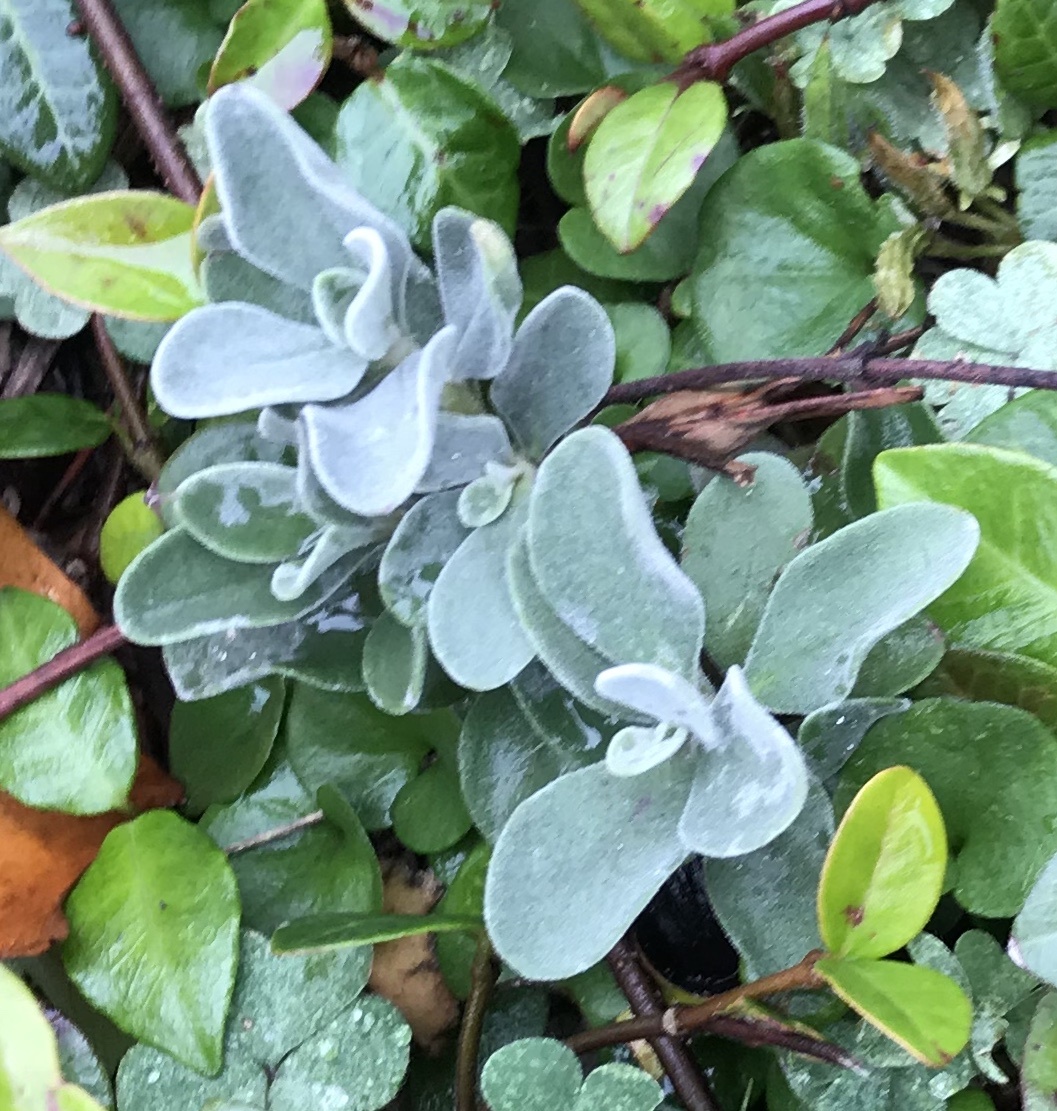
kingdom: Plantae
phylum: Tracheophyta
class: Magnoliopsida
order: Lamiales
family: Scrophulariaceae
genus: Leucophyllum
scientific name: Leucophyllum frutescens
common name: Texas silverleaf
